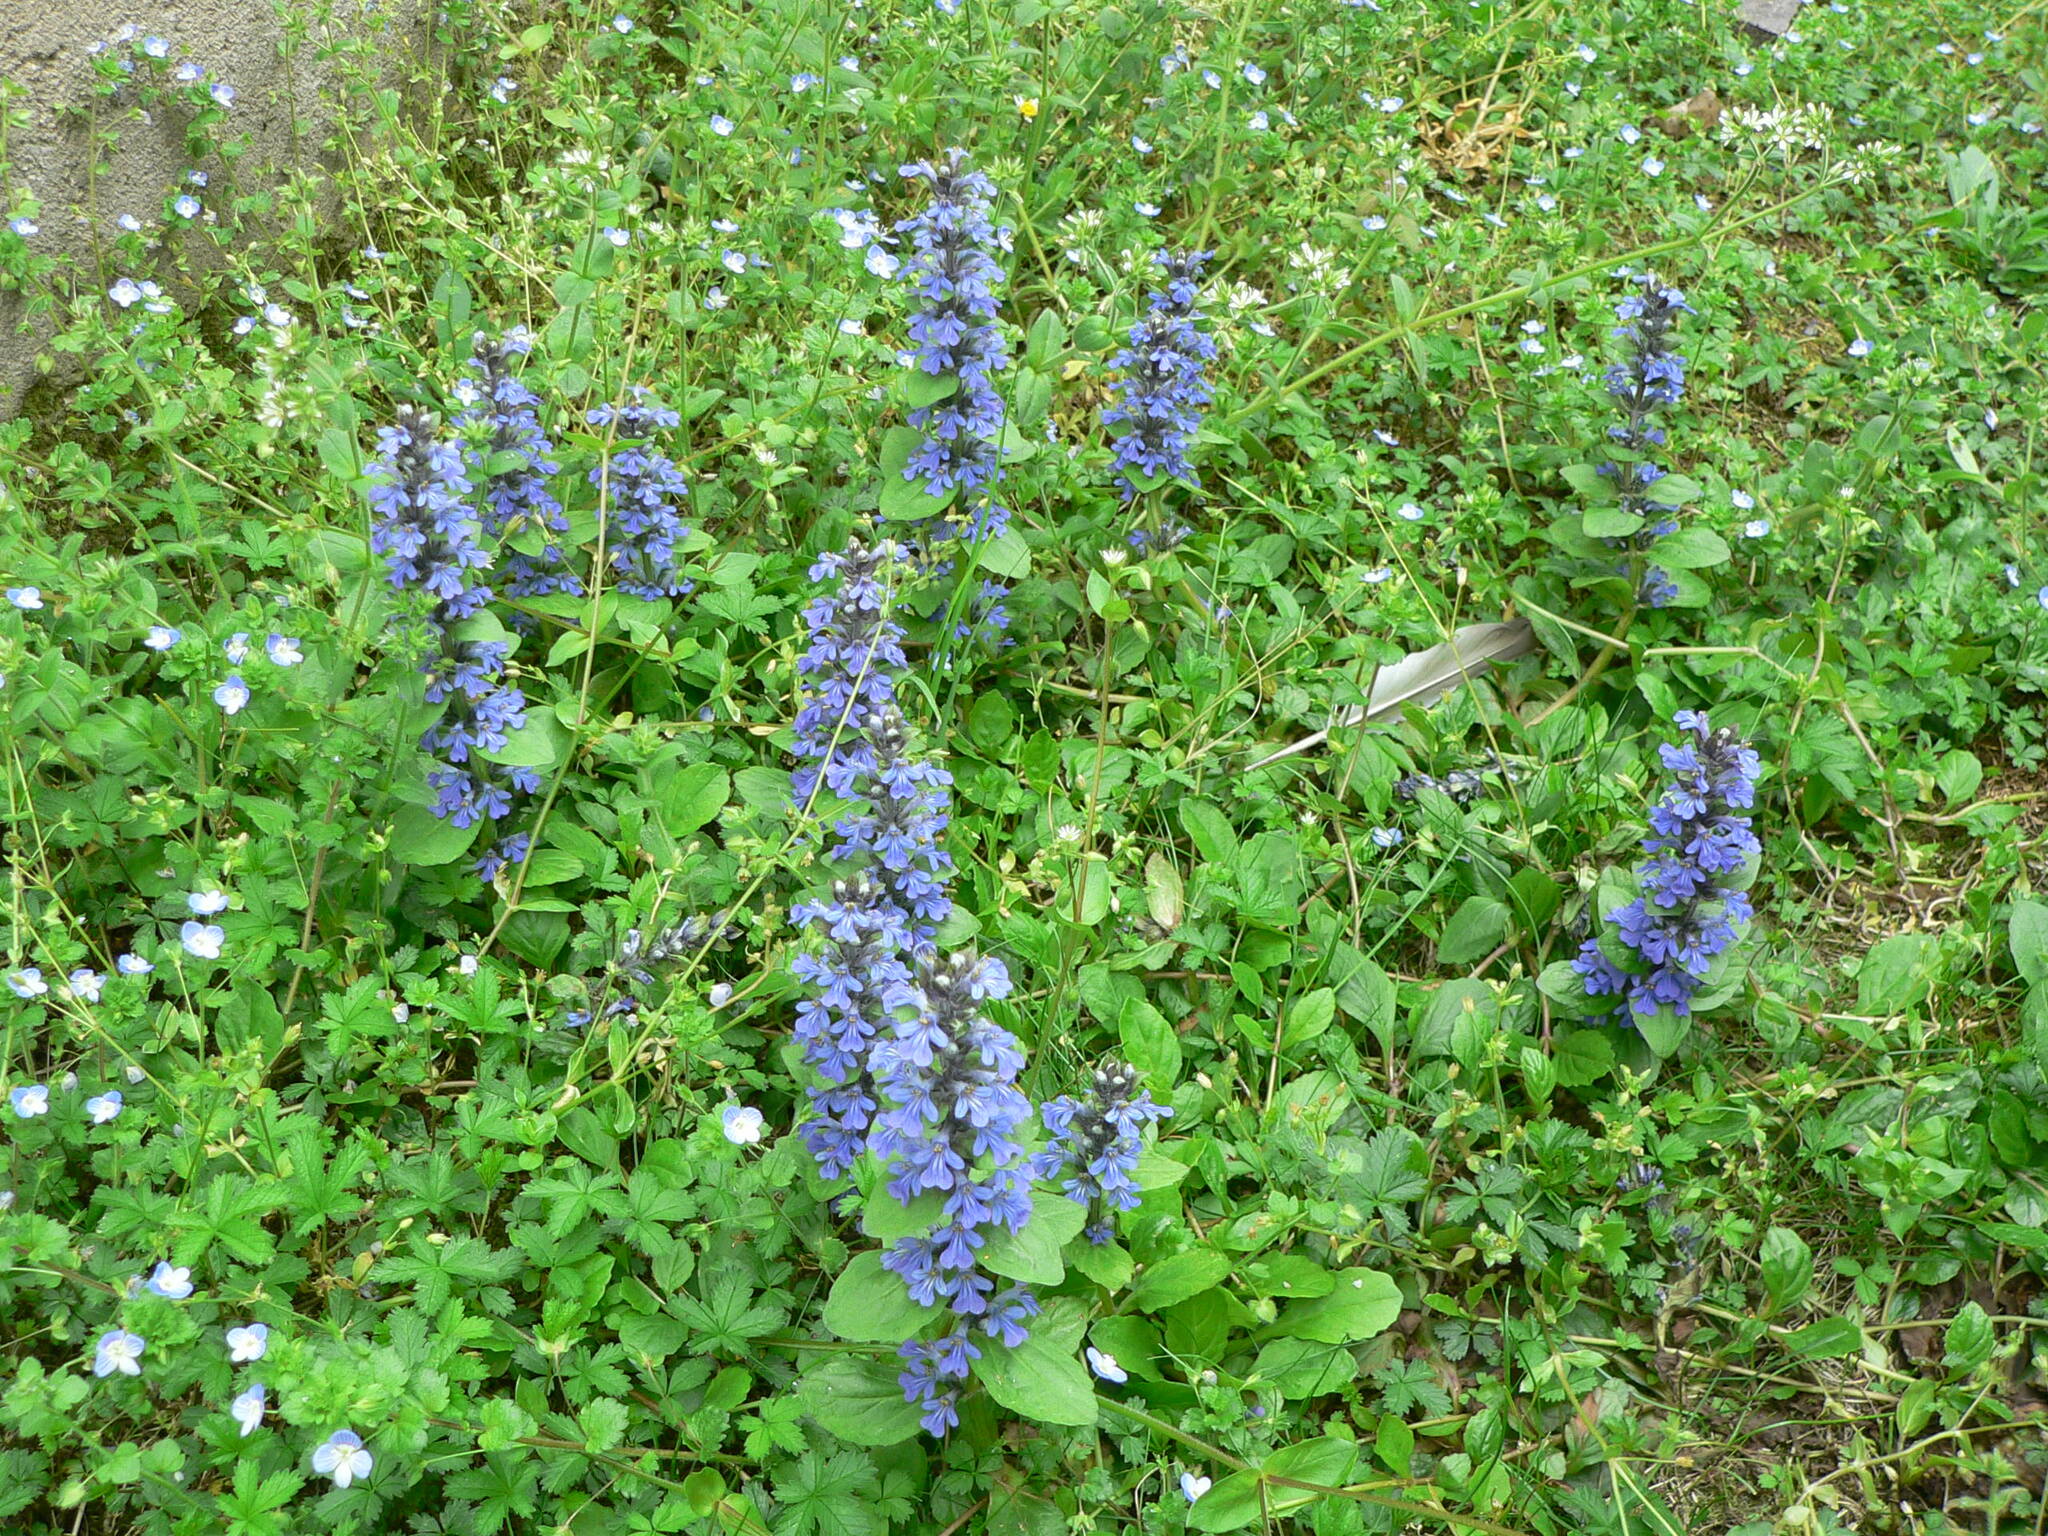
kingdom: Plantae
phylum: Tracheophyta
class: Magnoliopsida
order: Lamiales
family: Lamiaceae
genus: Ajuga
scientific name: Ajuga reptans
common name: Bugle
